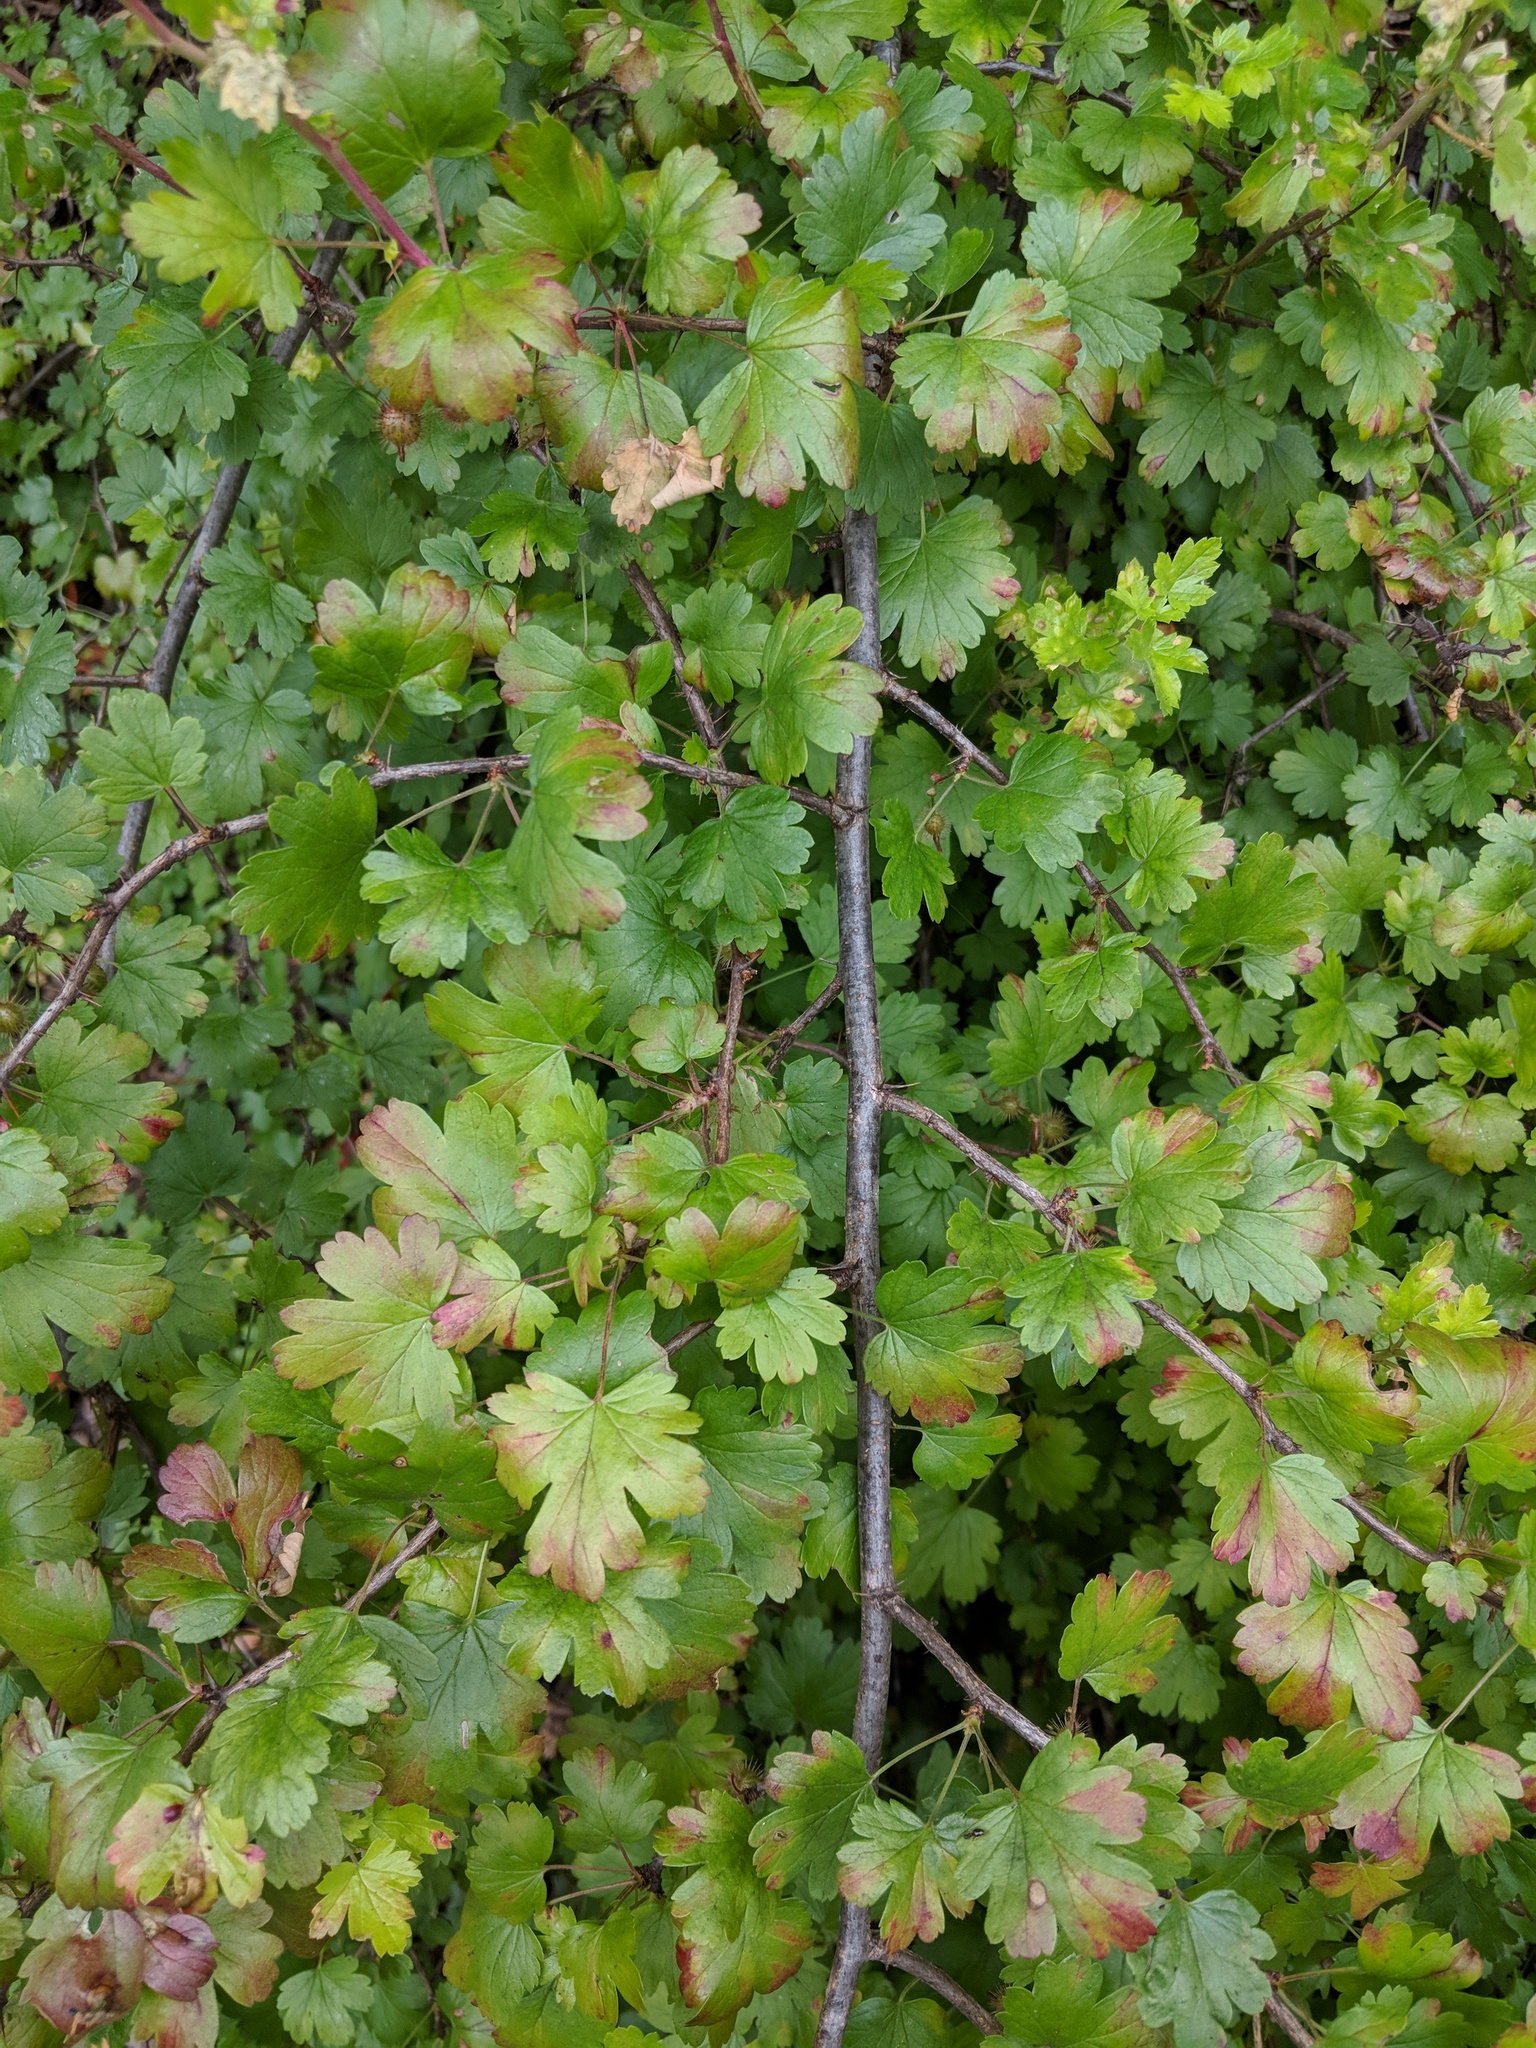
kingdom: Plantae
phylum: Tracheophyta
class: Magnoliopsida
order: Saxifragales
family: Grossulariaceae
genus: Ribes
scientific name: Ribes californicum
